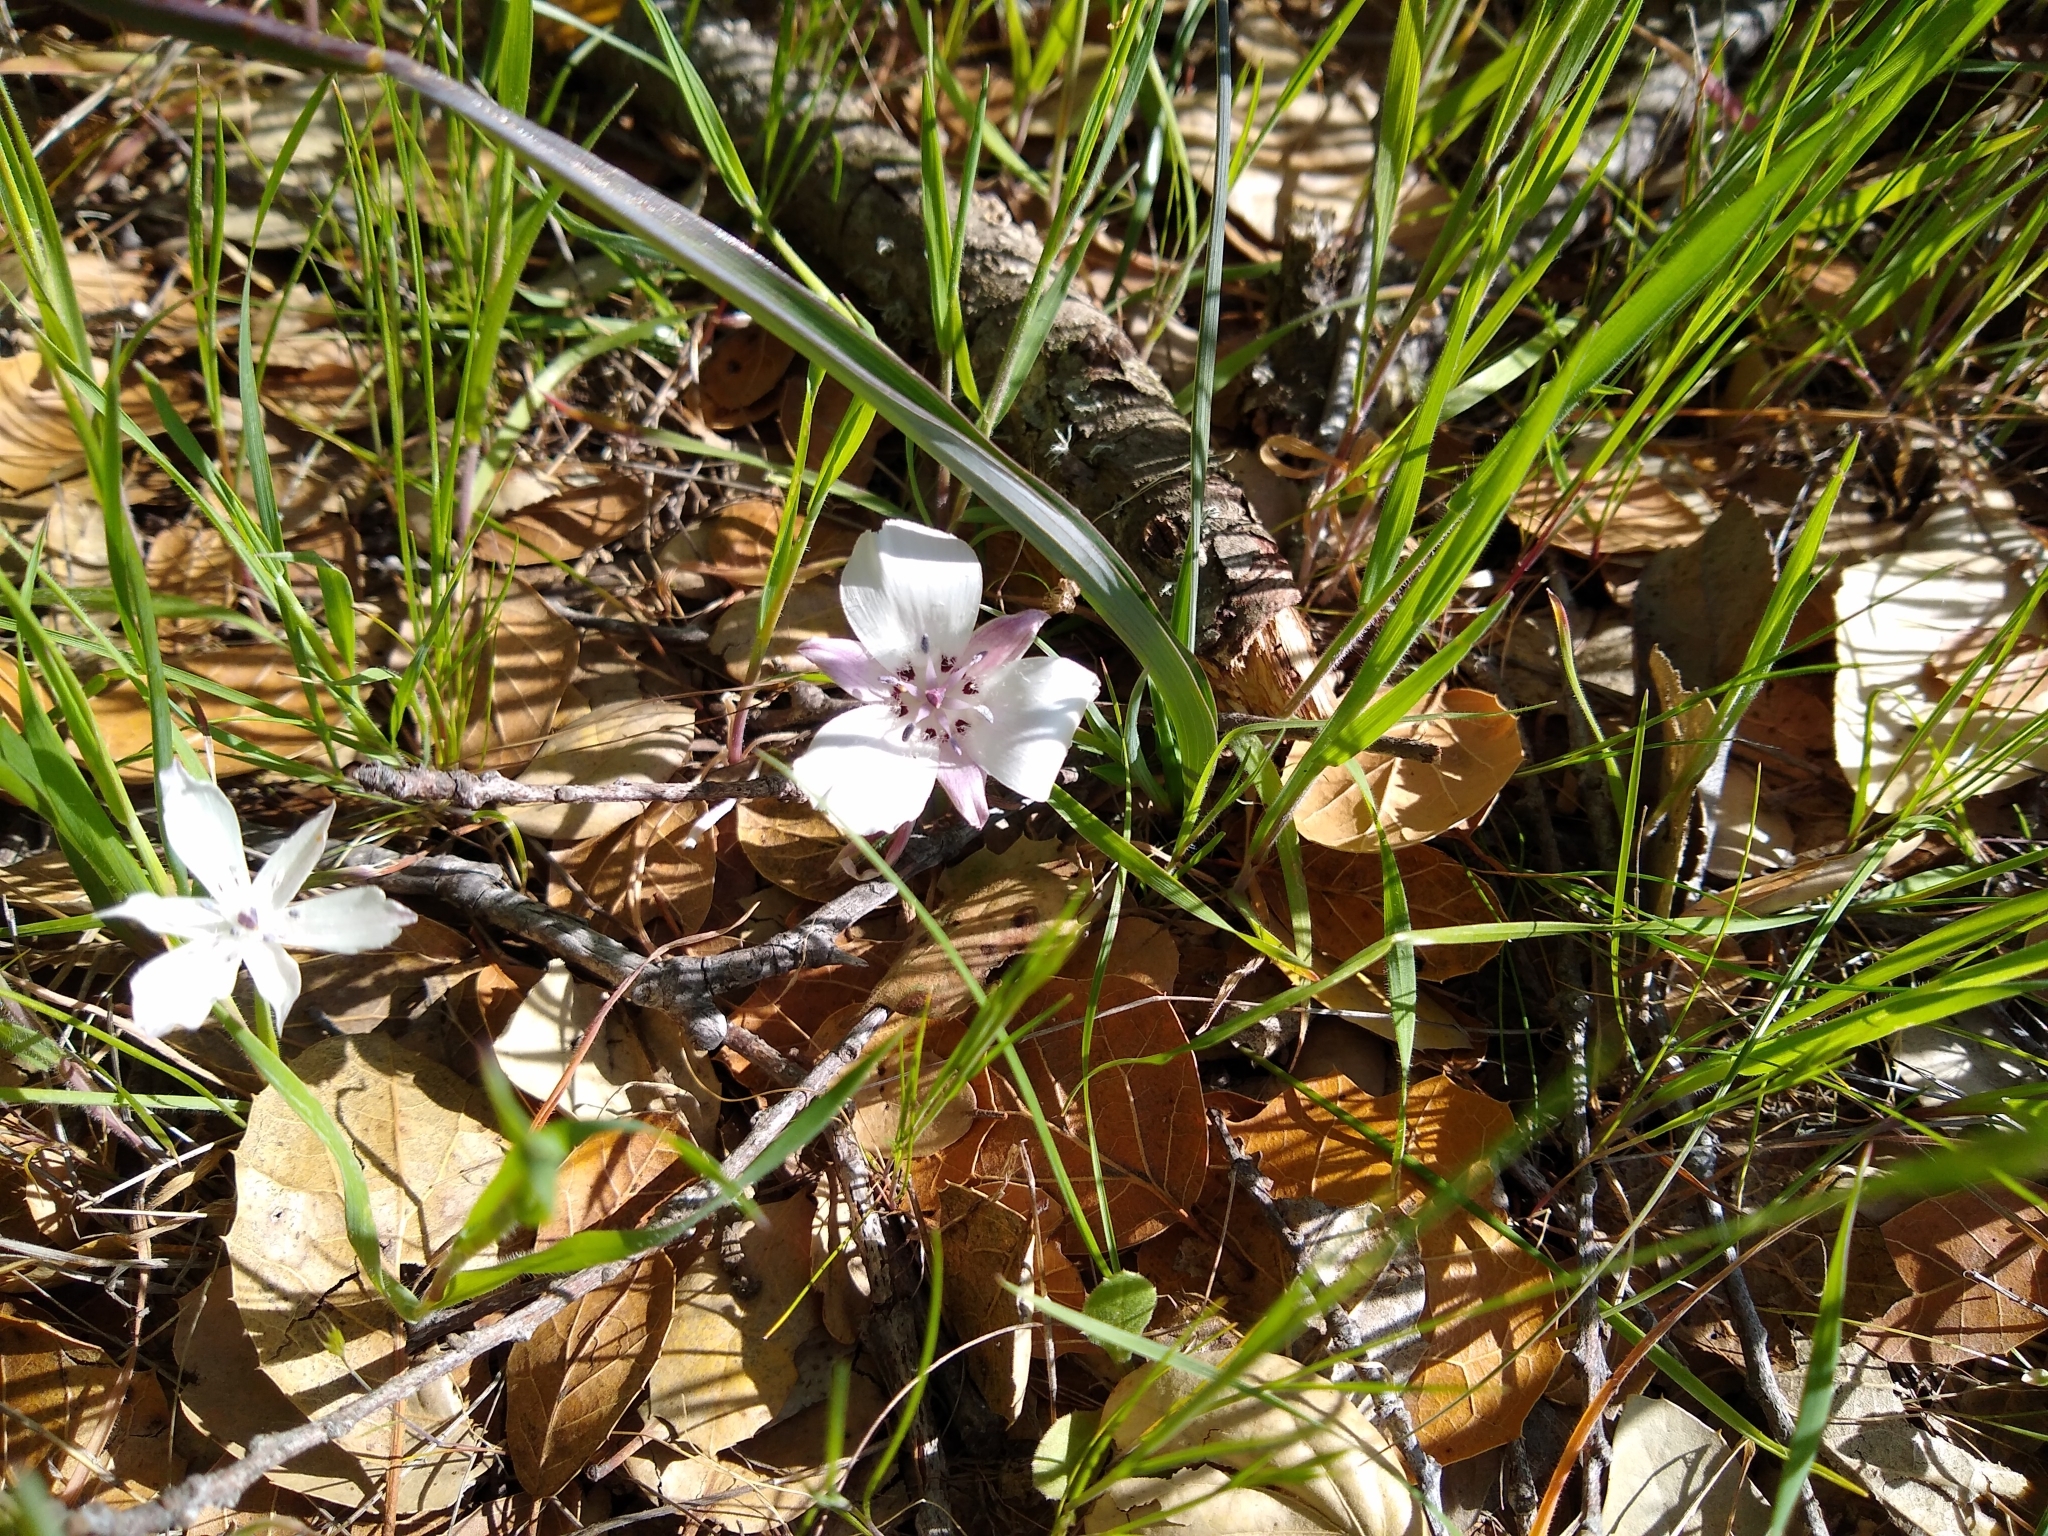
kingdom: Plantae
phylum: Tracheophyta
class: Liliopsida
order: Liliales
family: Liliaceae
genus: Calochortus
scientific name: Calochortus umbellatus
